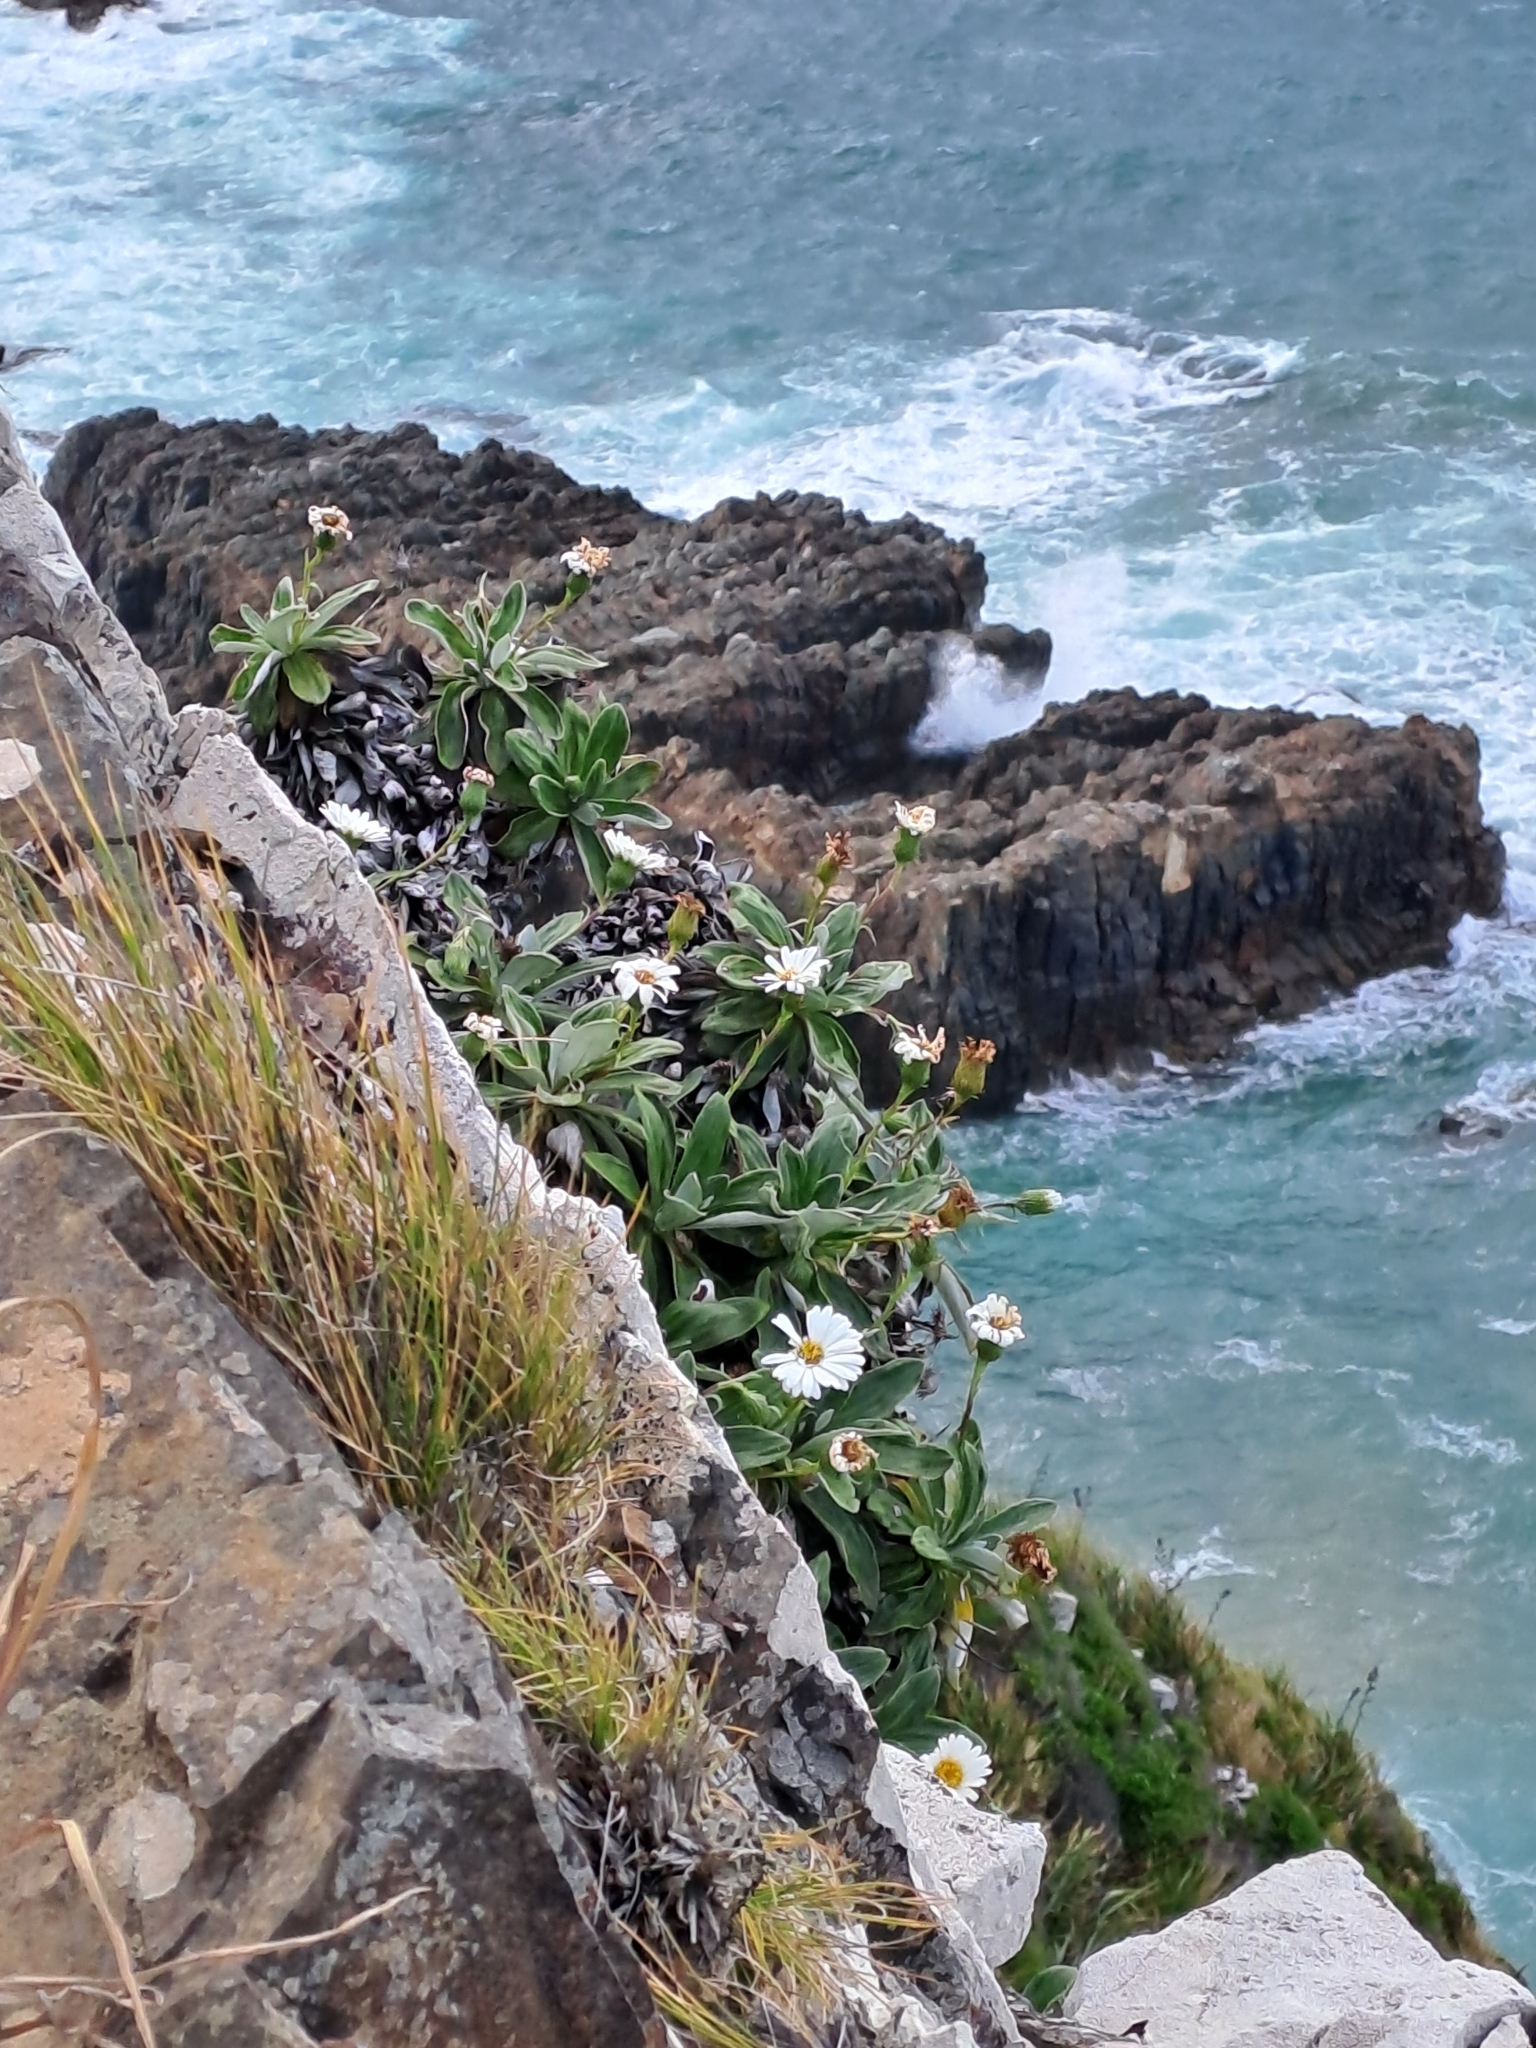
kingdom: Plantae
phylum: Tracheophyta
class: Magnoliopsida
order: Asterales
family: Asteraceae
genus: Celmisia
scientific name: Celmisia lindsayi
